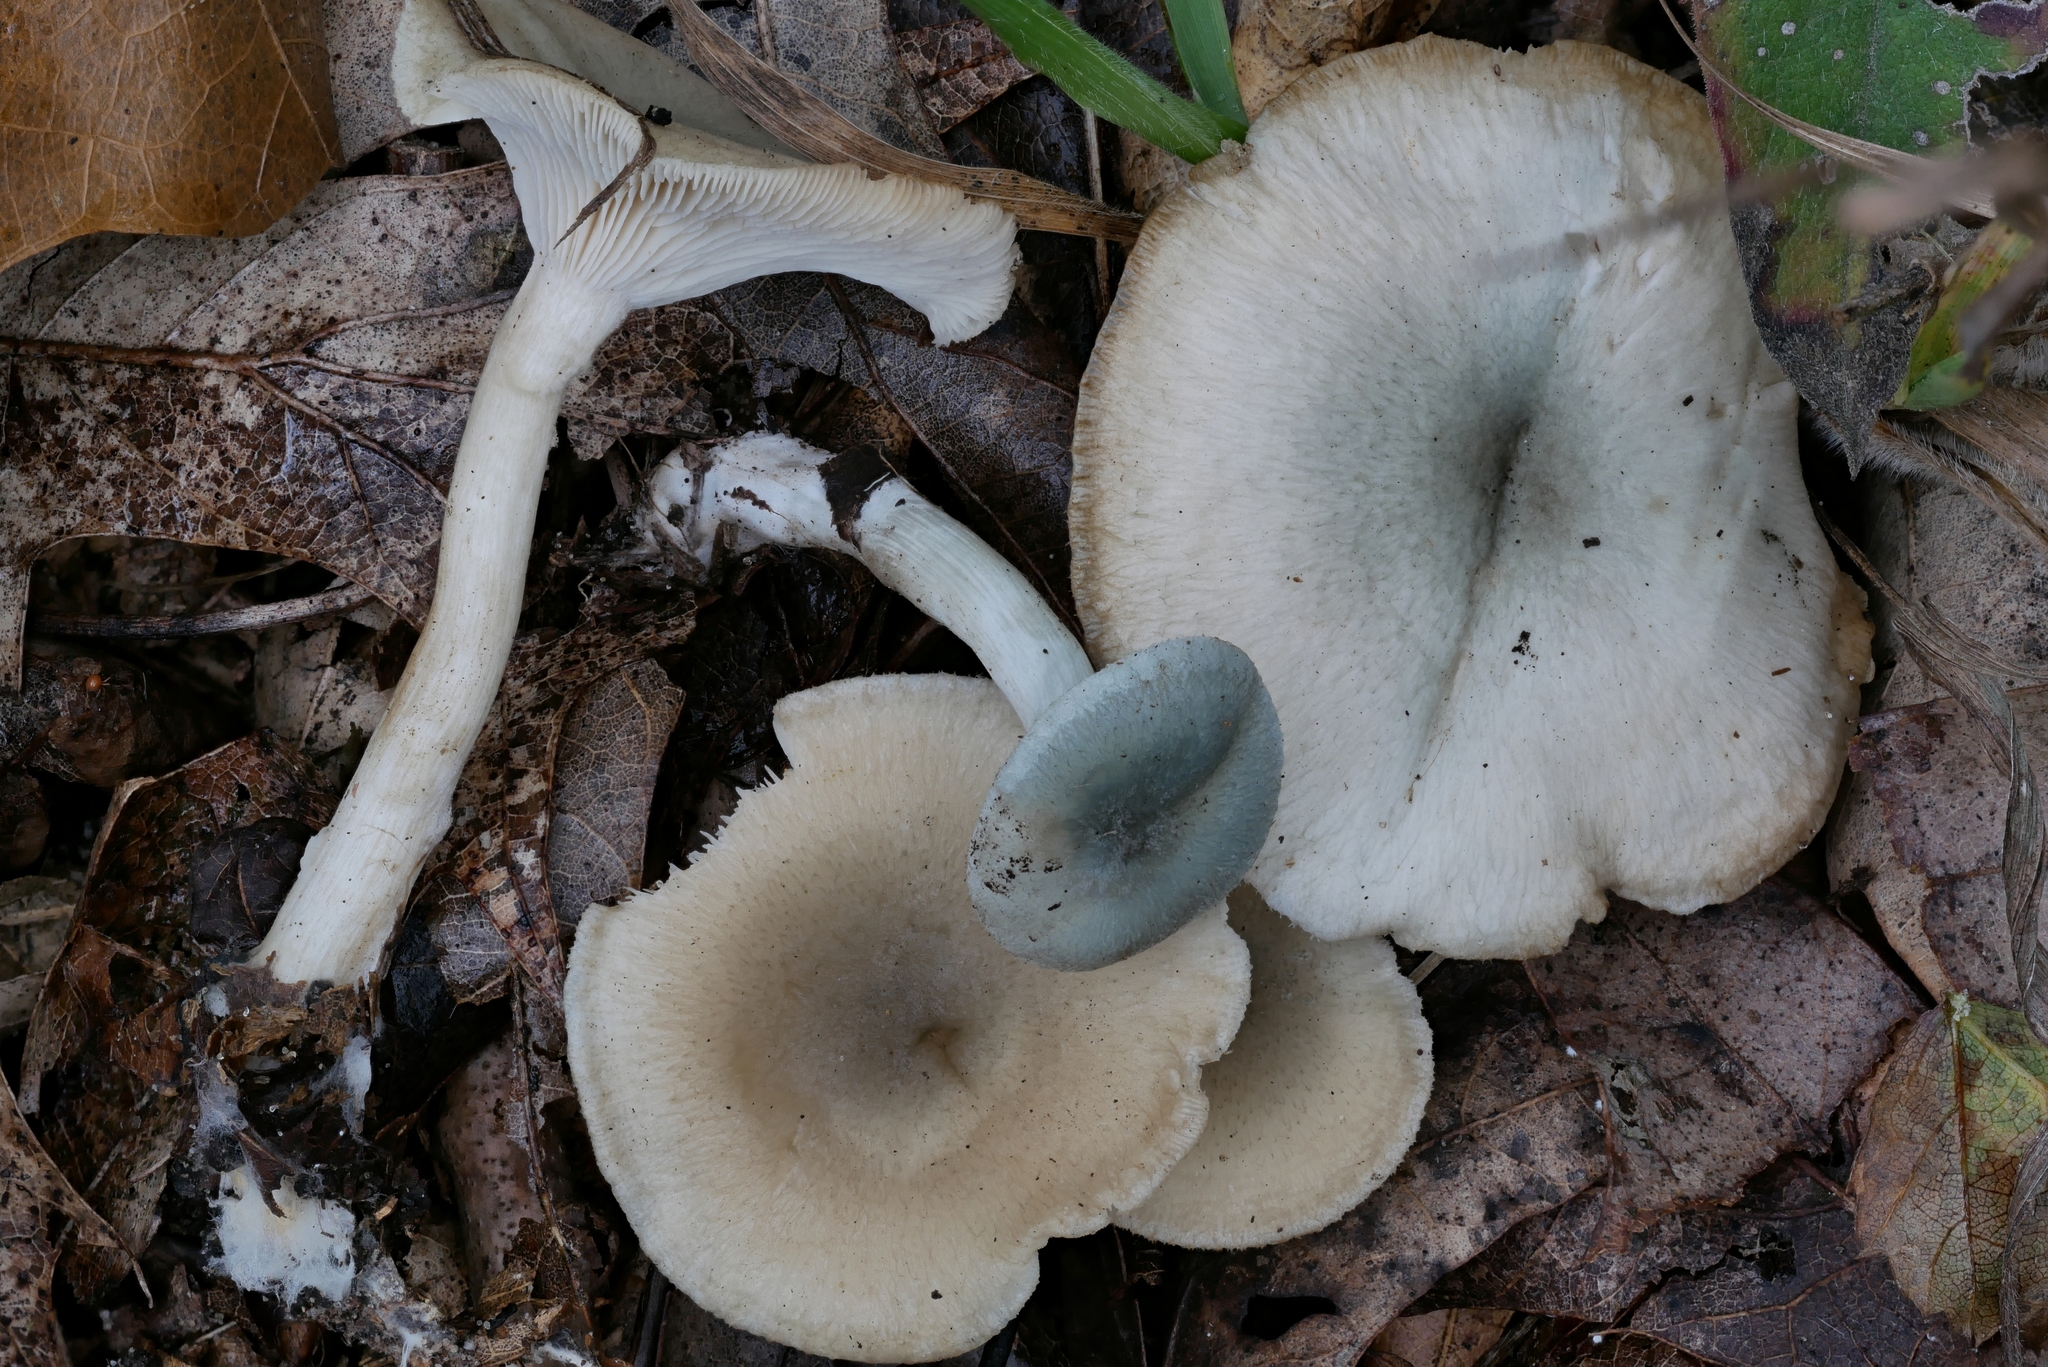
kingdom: Fungi
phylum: Basidiomycota
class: Agaricomycetes
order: Agaricales
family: Tricholomataceae
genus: Collybia
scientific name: Collybia
